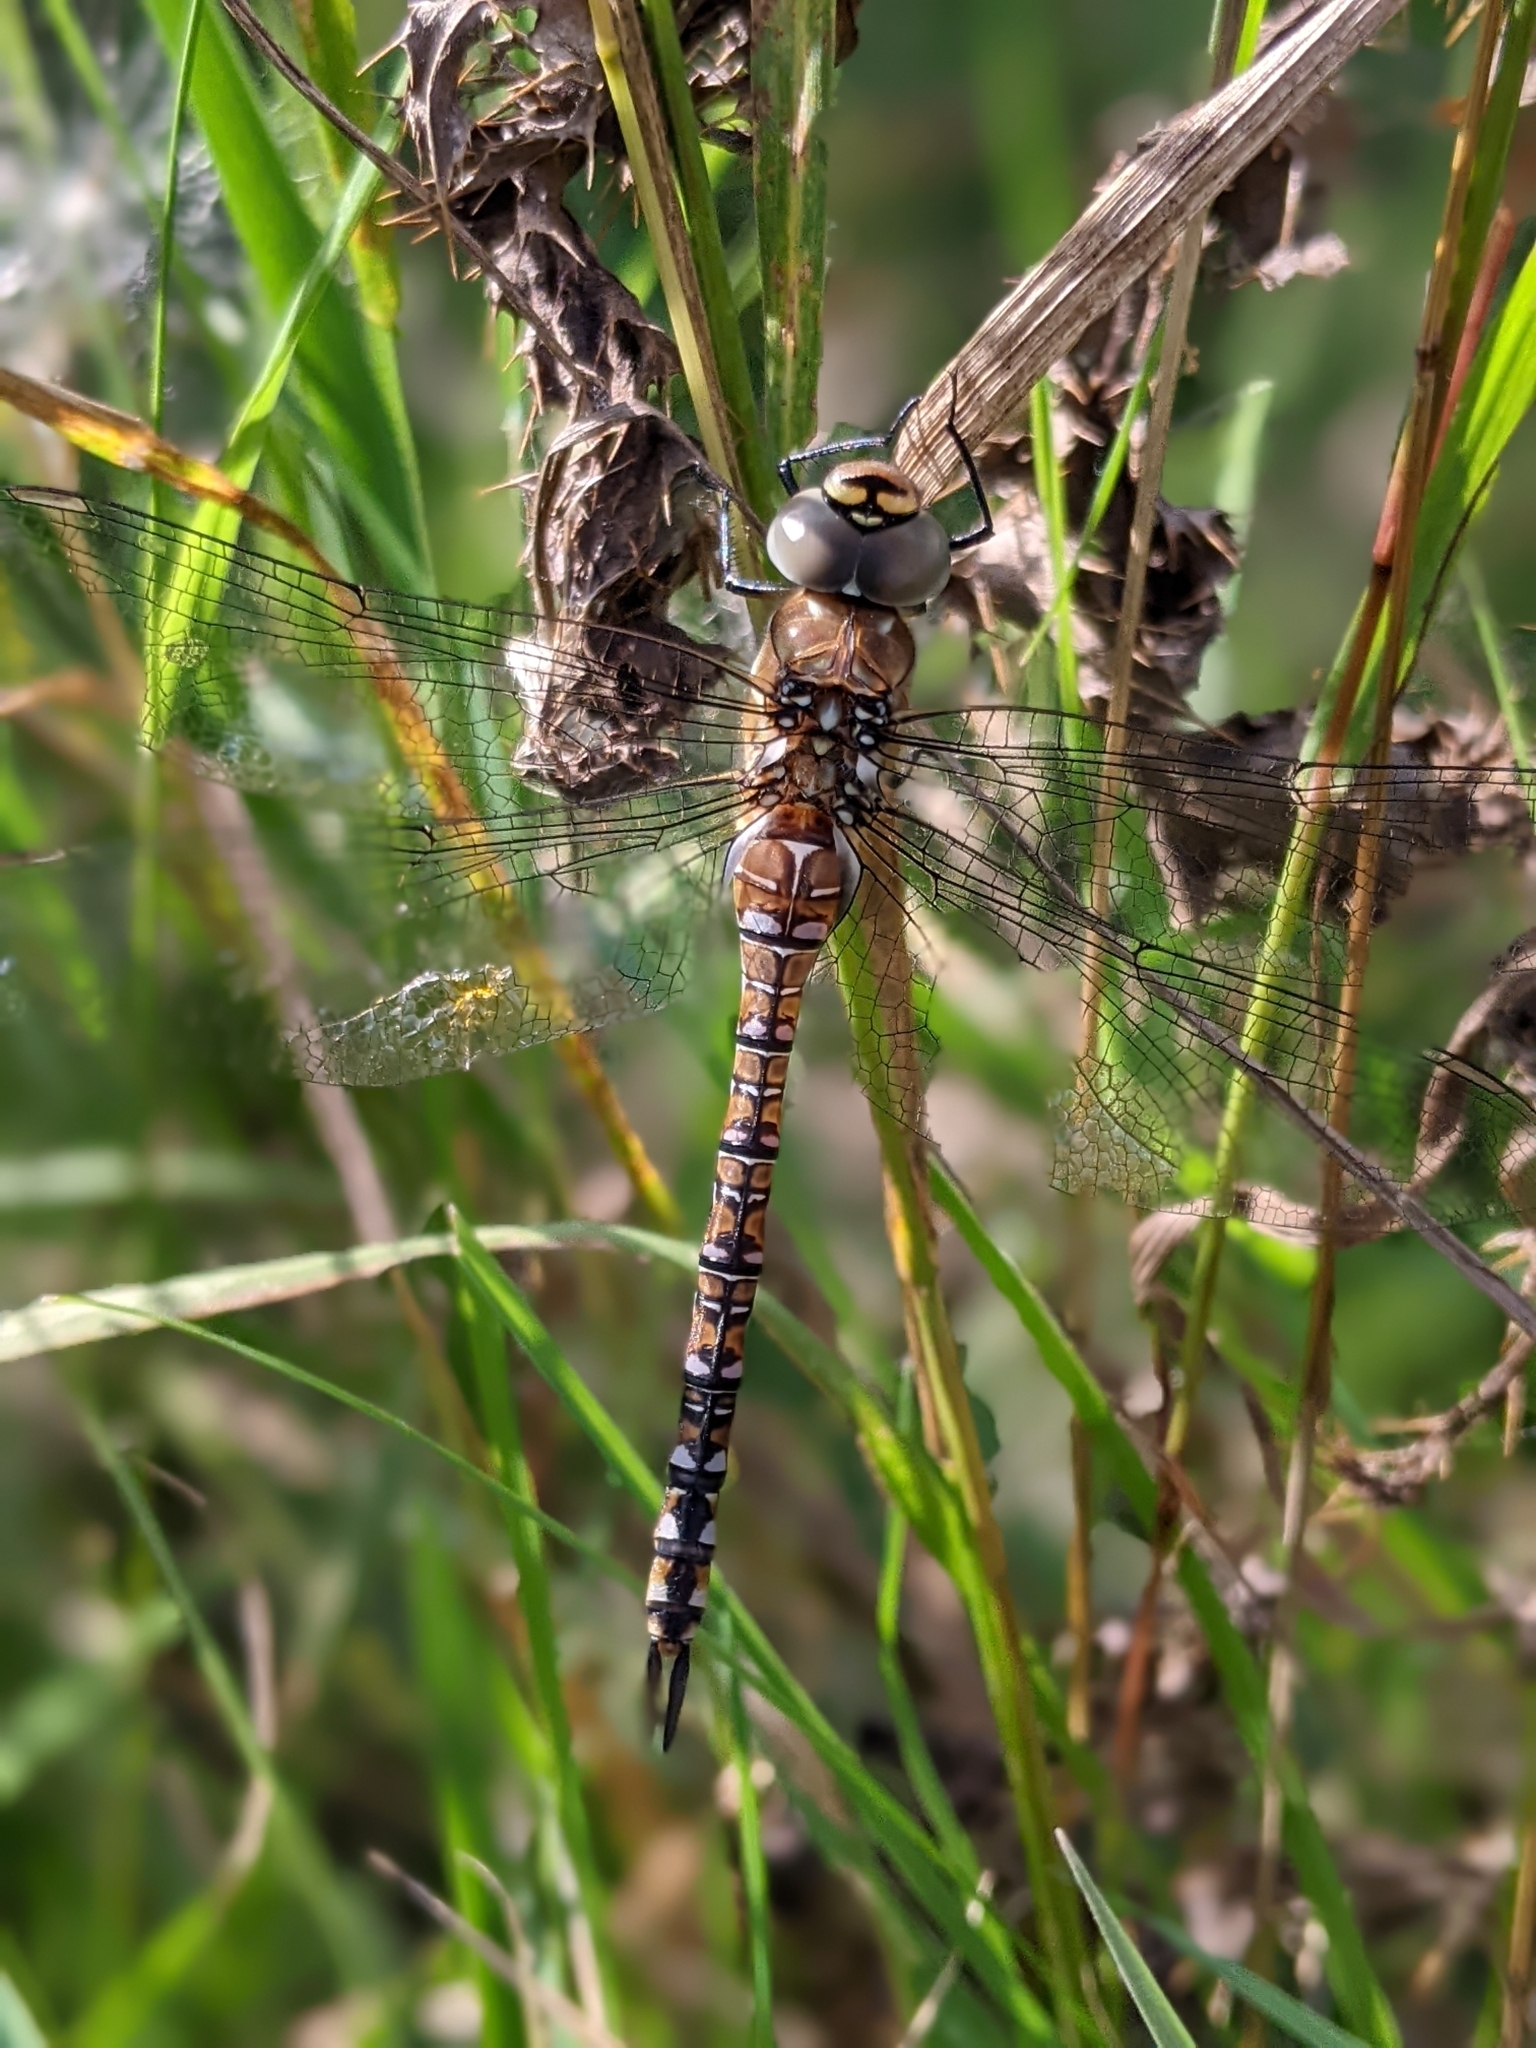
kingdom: Animalia
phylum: Arthropoda
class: Insecta
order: Odonata
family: Aeshnidae
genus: Aeshna
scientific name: Aeshna mixta
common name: Migrant hawker
